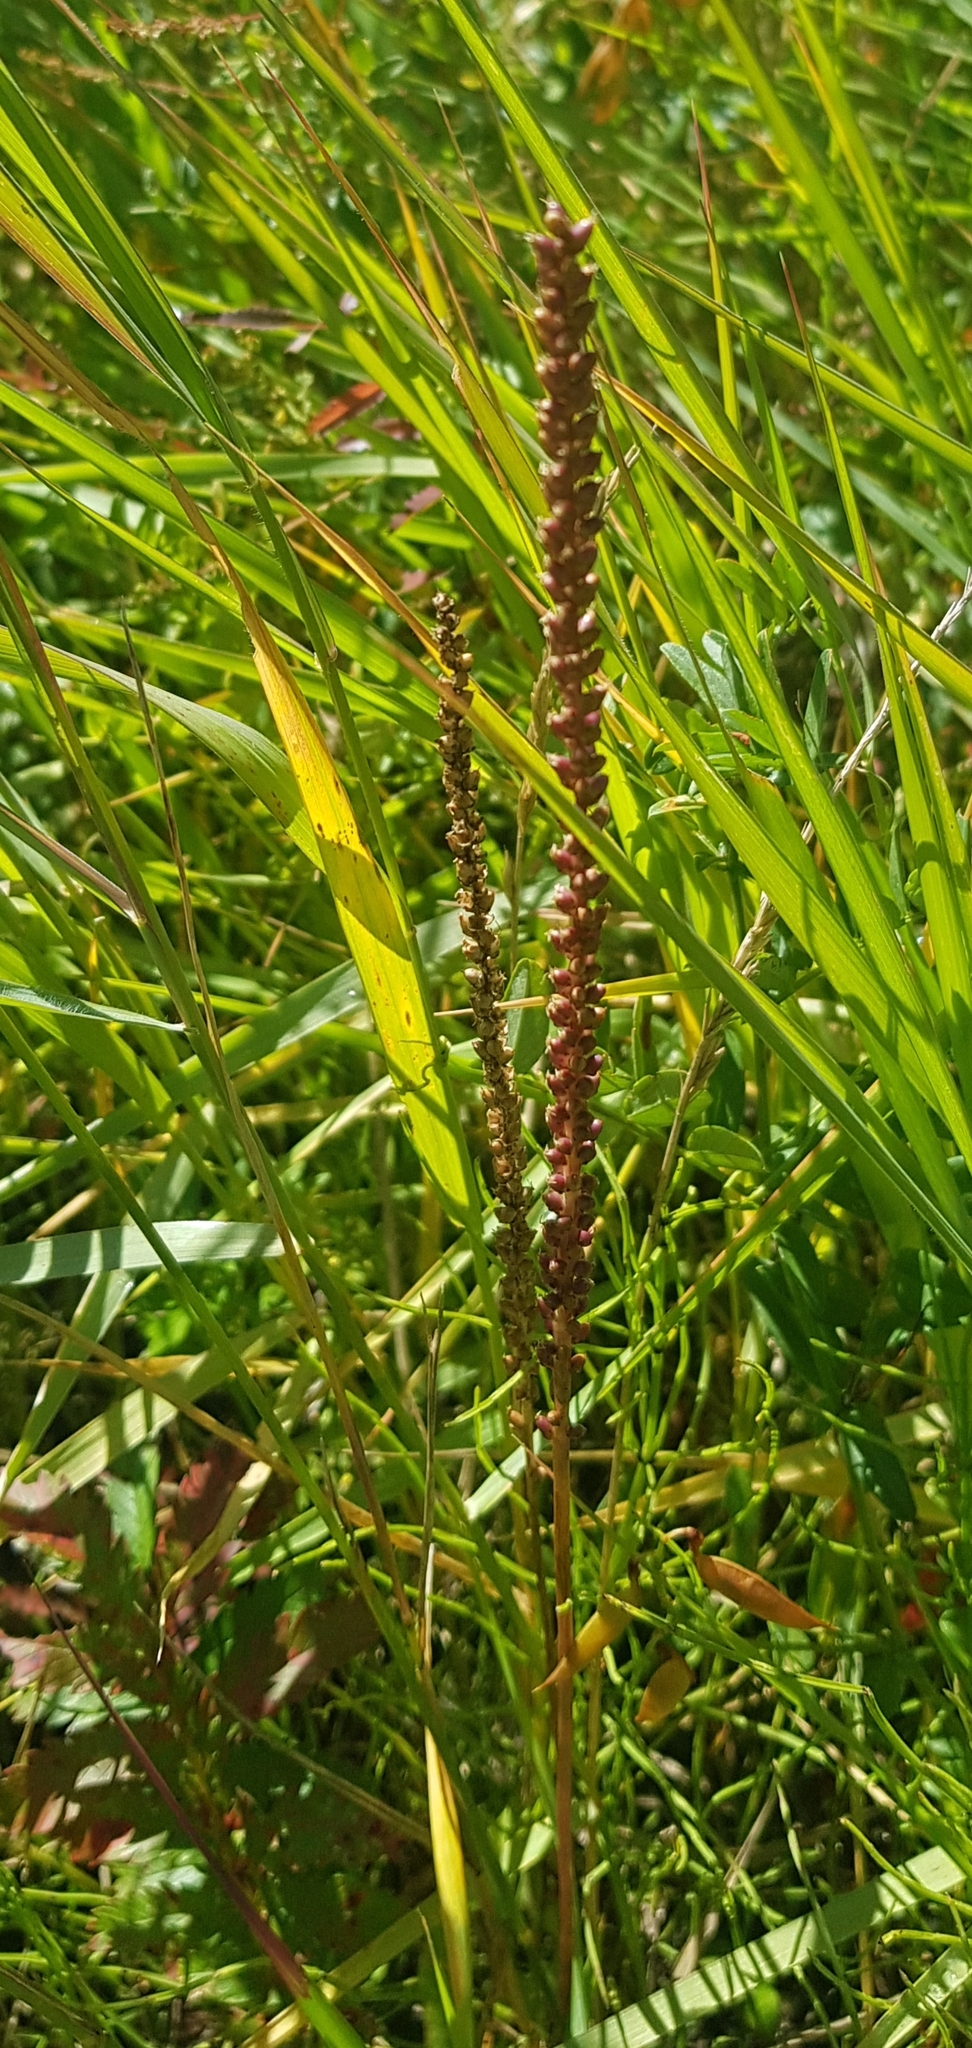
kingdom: Plantae
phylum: Tracheophyta
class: Magnoliopsida
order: Lamiales
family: Plantaginaceae
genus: Plantago
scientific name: Plantago major
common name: Common plantain
